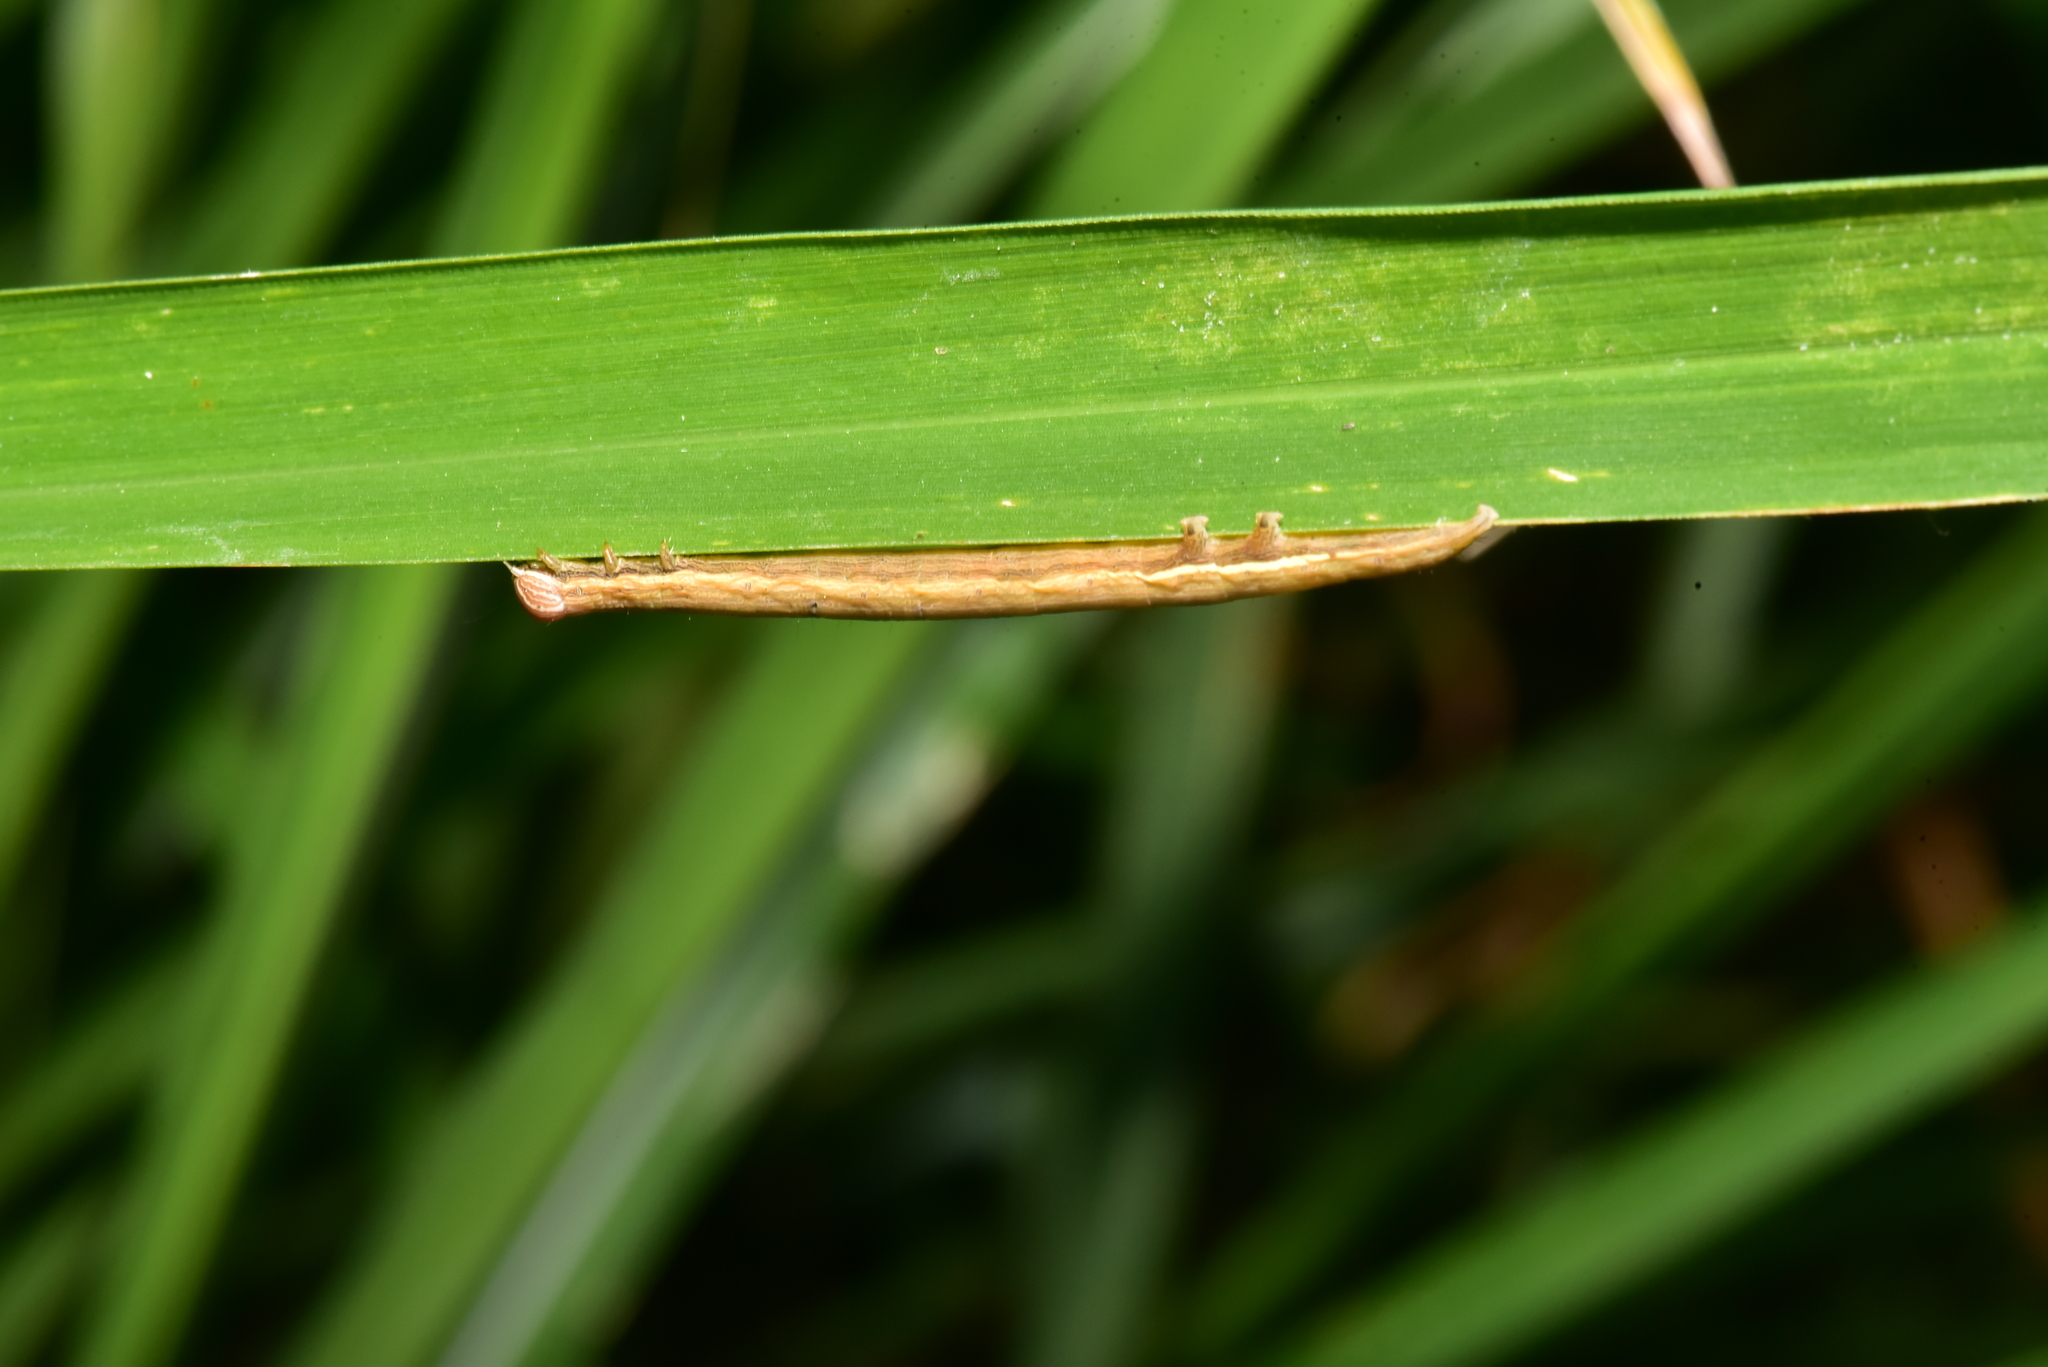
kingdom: Animalia
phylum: Arthropoda
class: Insecta
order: Lepidoptera
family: Erebidae
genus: Mocis
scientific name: Mocis undata
